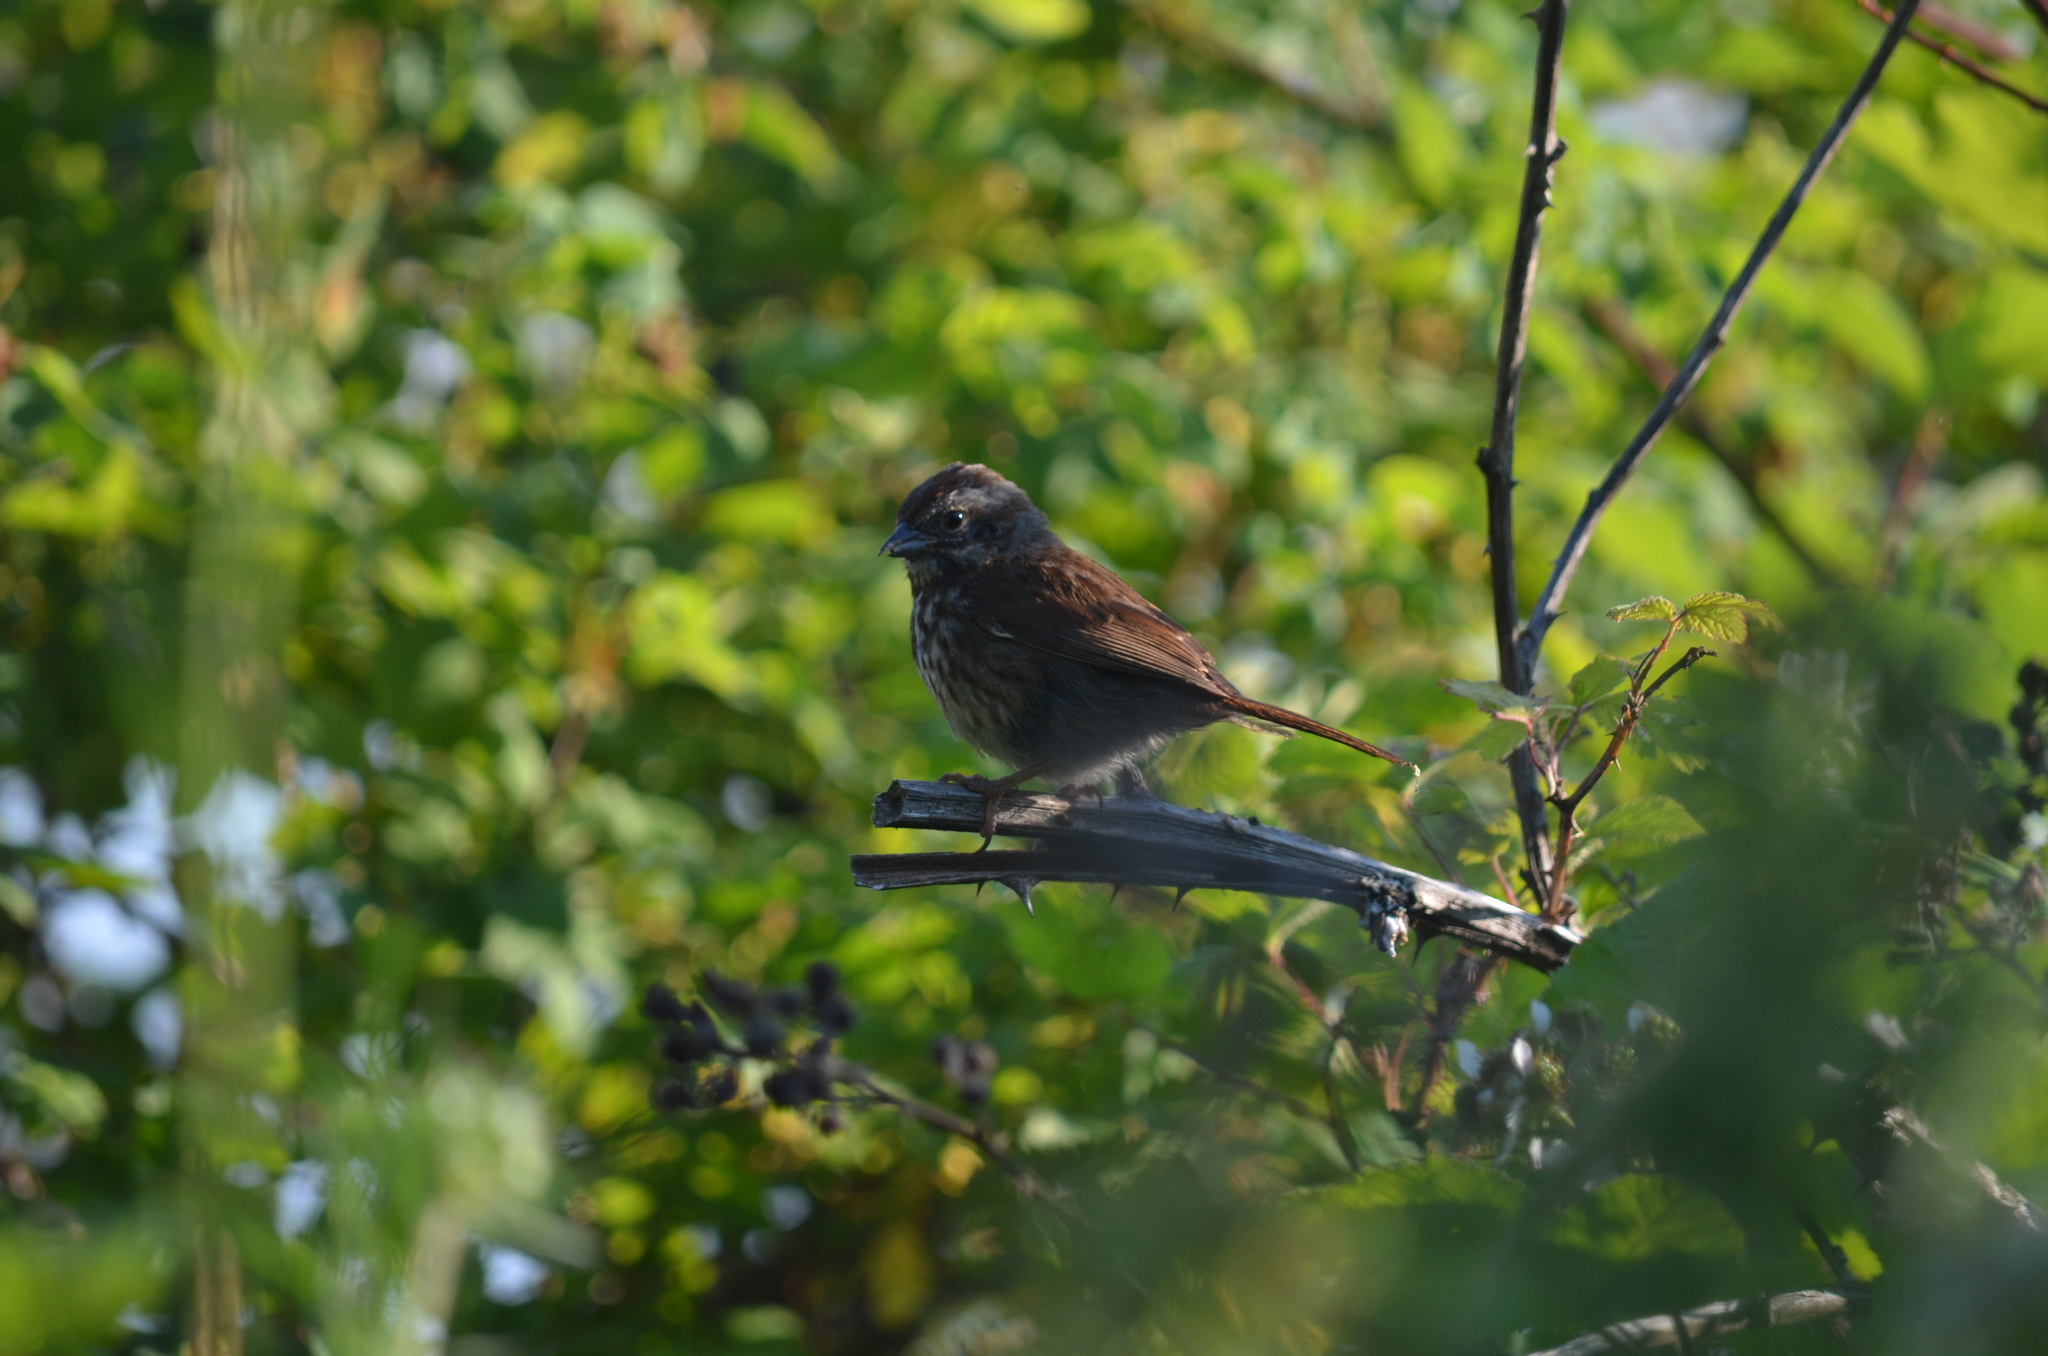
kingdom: Animalia
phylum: Chordata
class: Aves
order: Passeriformes
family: Passerellidae
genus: Melospiza
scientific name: Melospiza melodia
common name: Song sparrow
